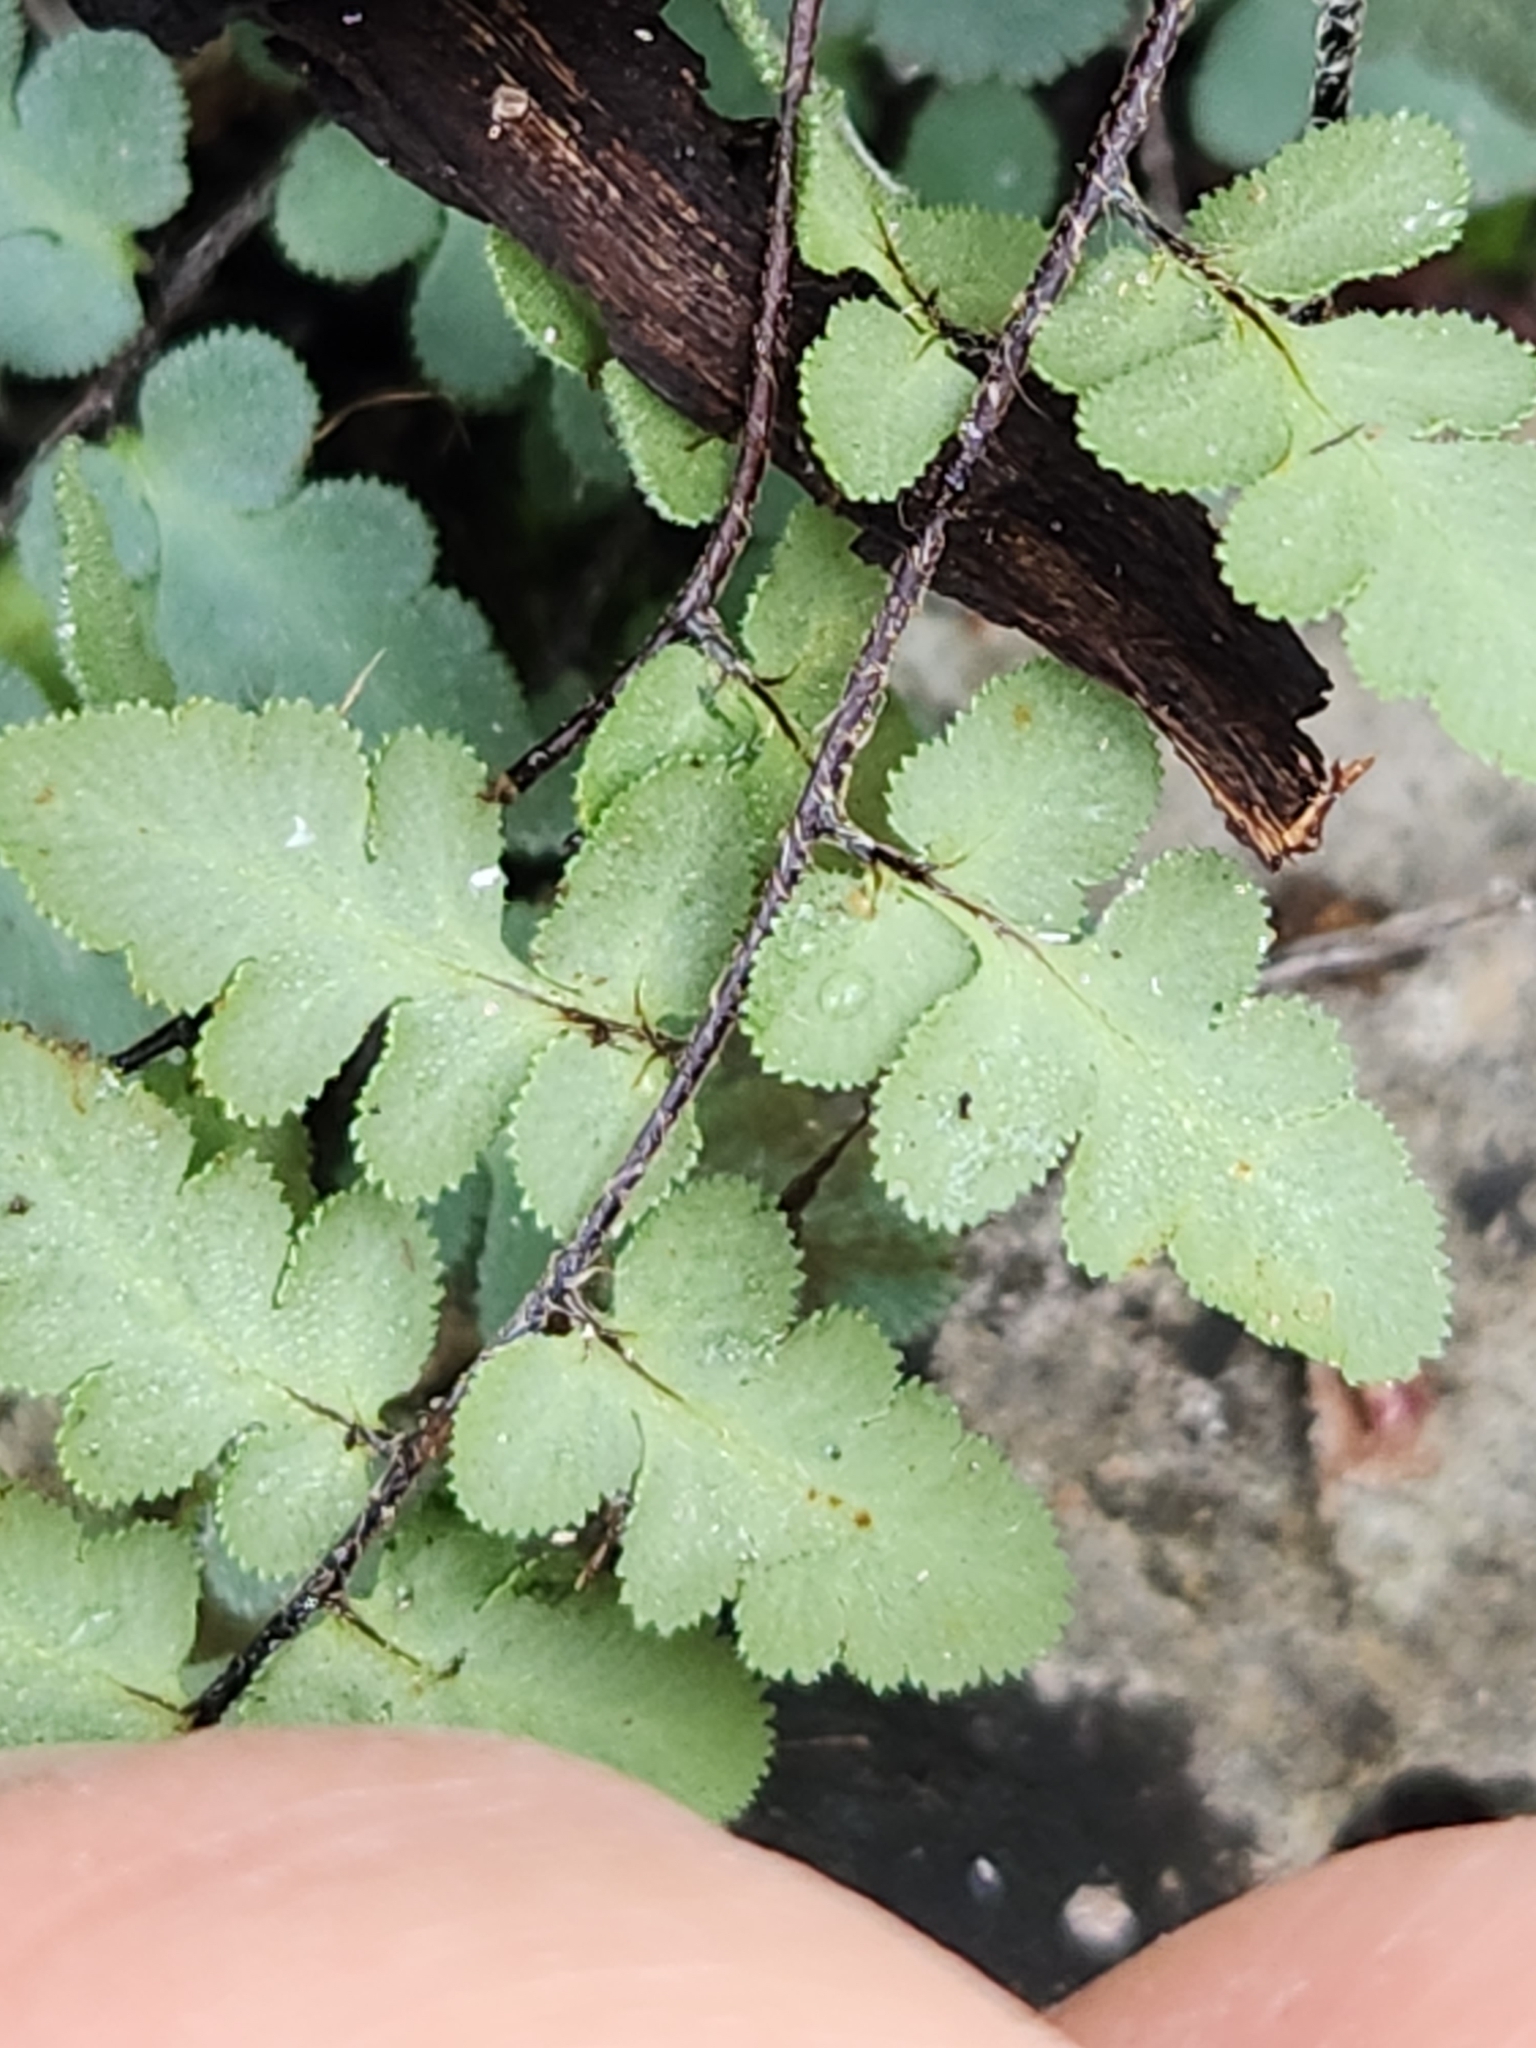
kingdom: Plantae
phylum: Tracheophyta
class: Polypodiopsida
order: Polypodiales
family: Pteridaceae
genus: Myriopteris
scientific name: Myriopteris scabra
